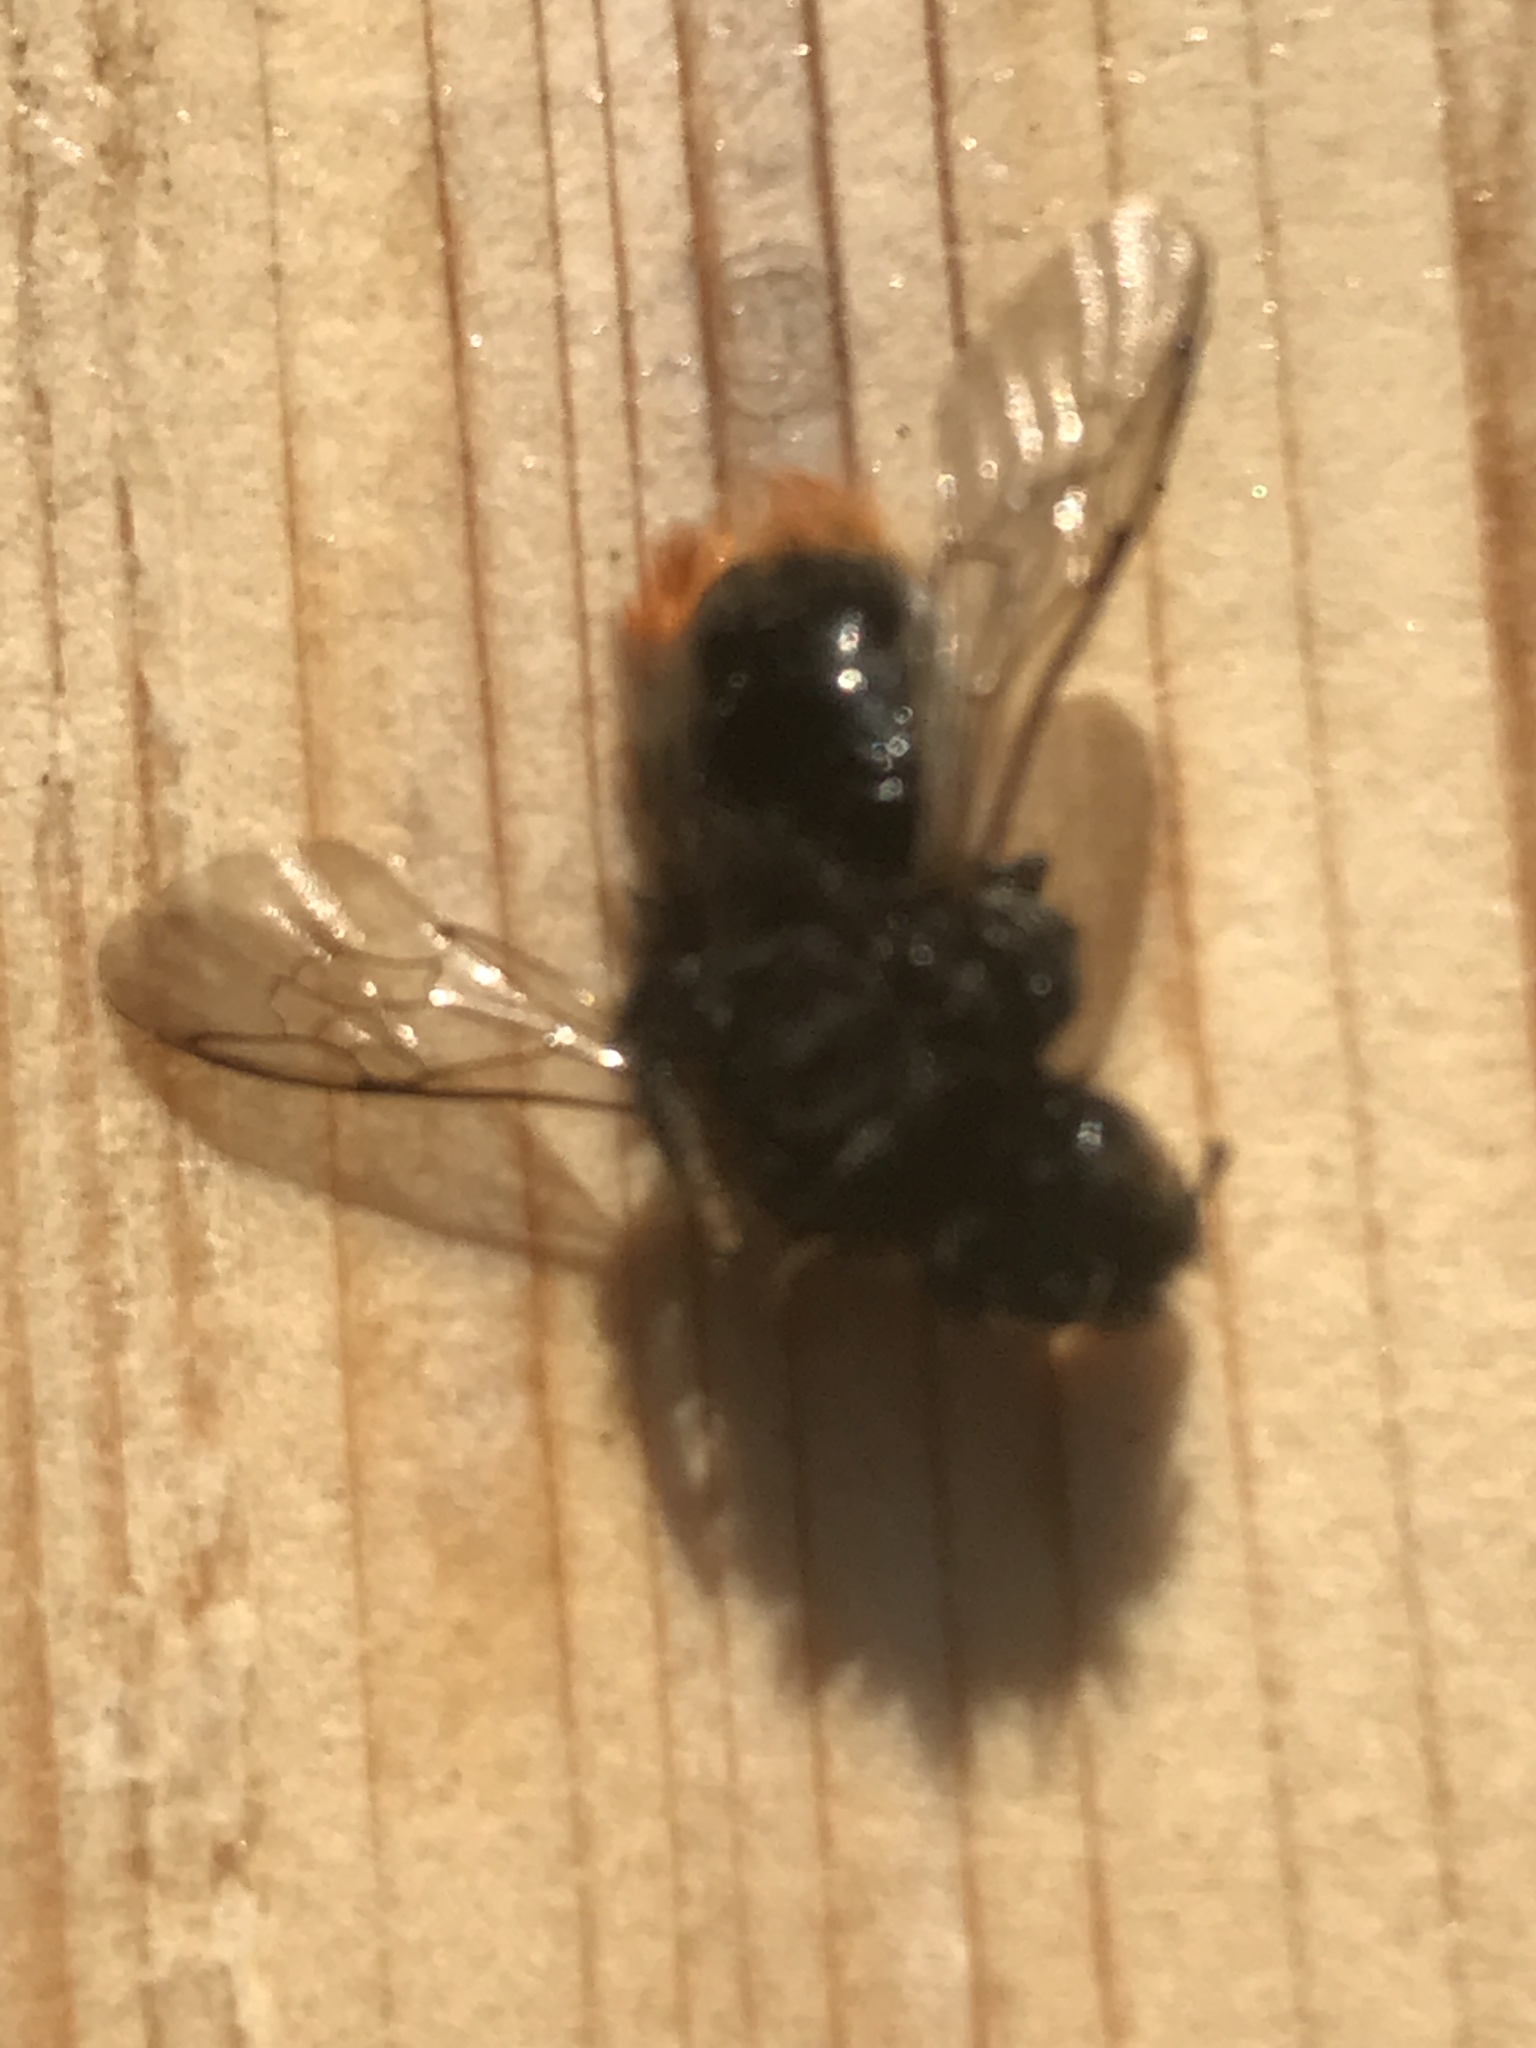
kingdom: Animalia
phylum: Arthropoda
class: Insecta
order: Hymenoptera
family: Apidae
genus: Bombus
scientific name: Bombus lapidarius
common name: Large red-tailed humble-bee
